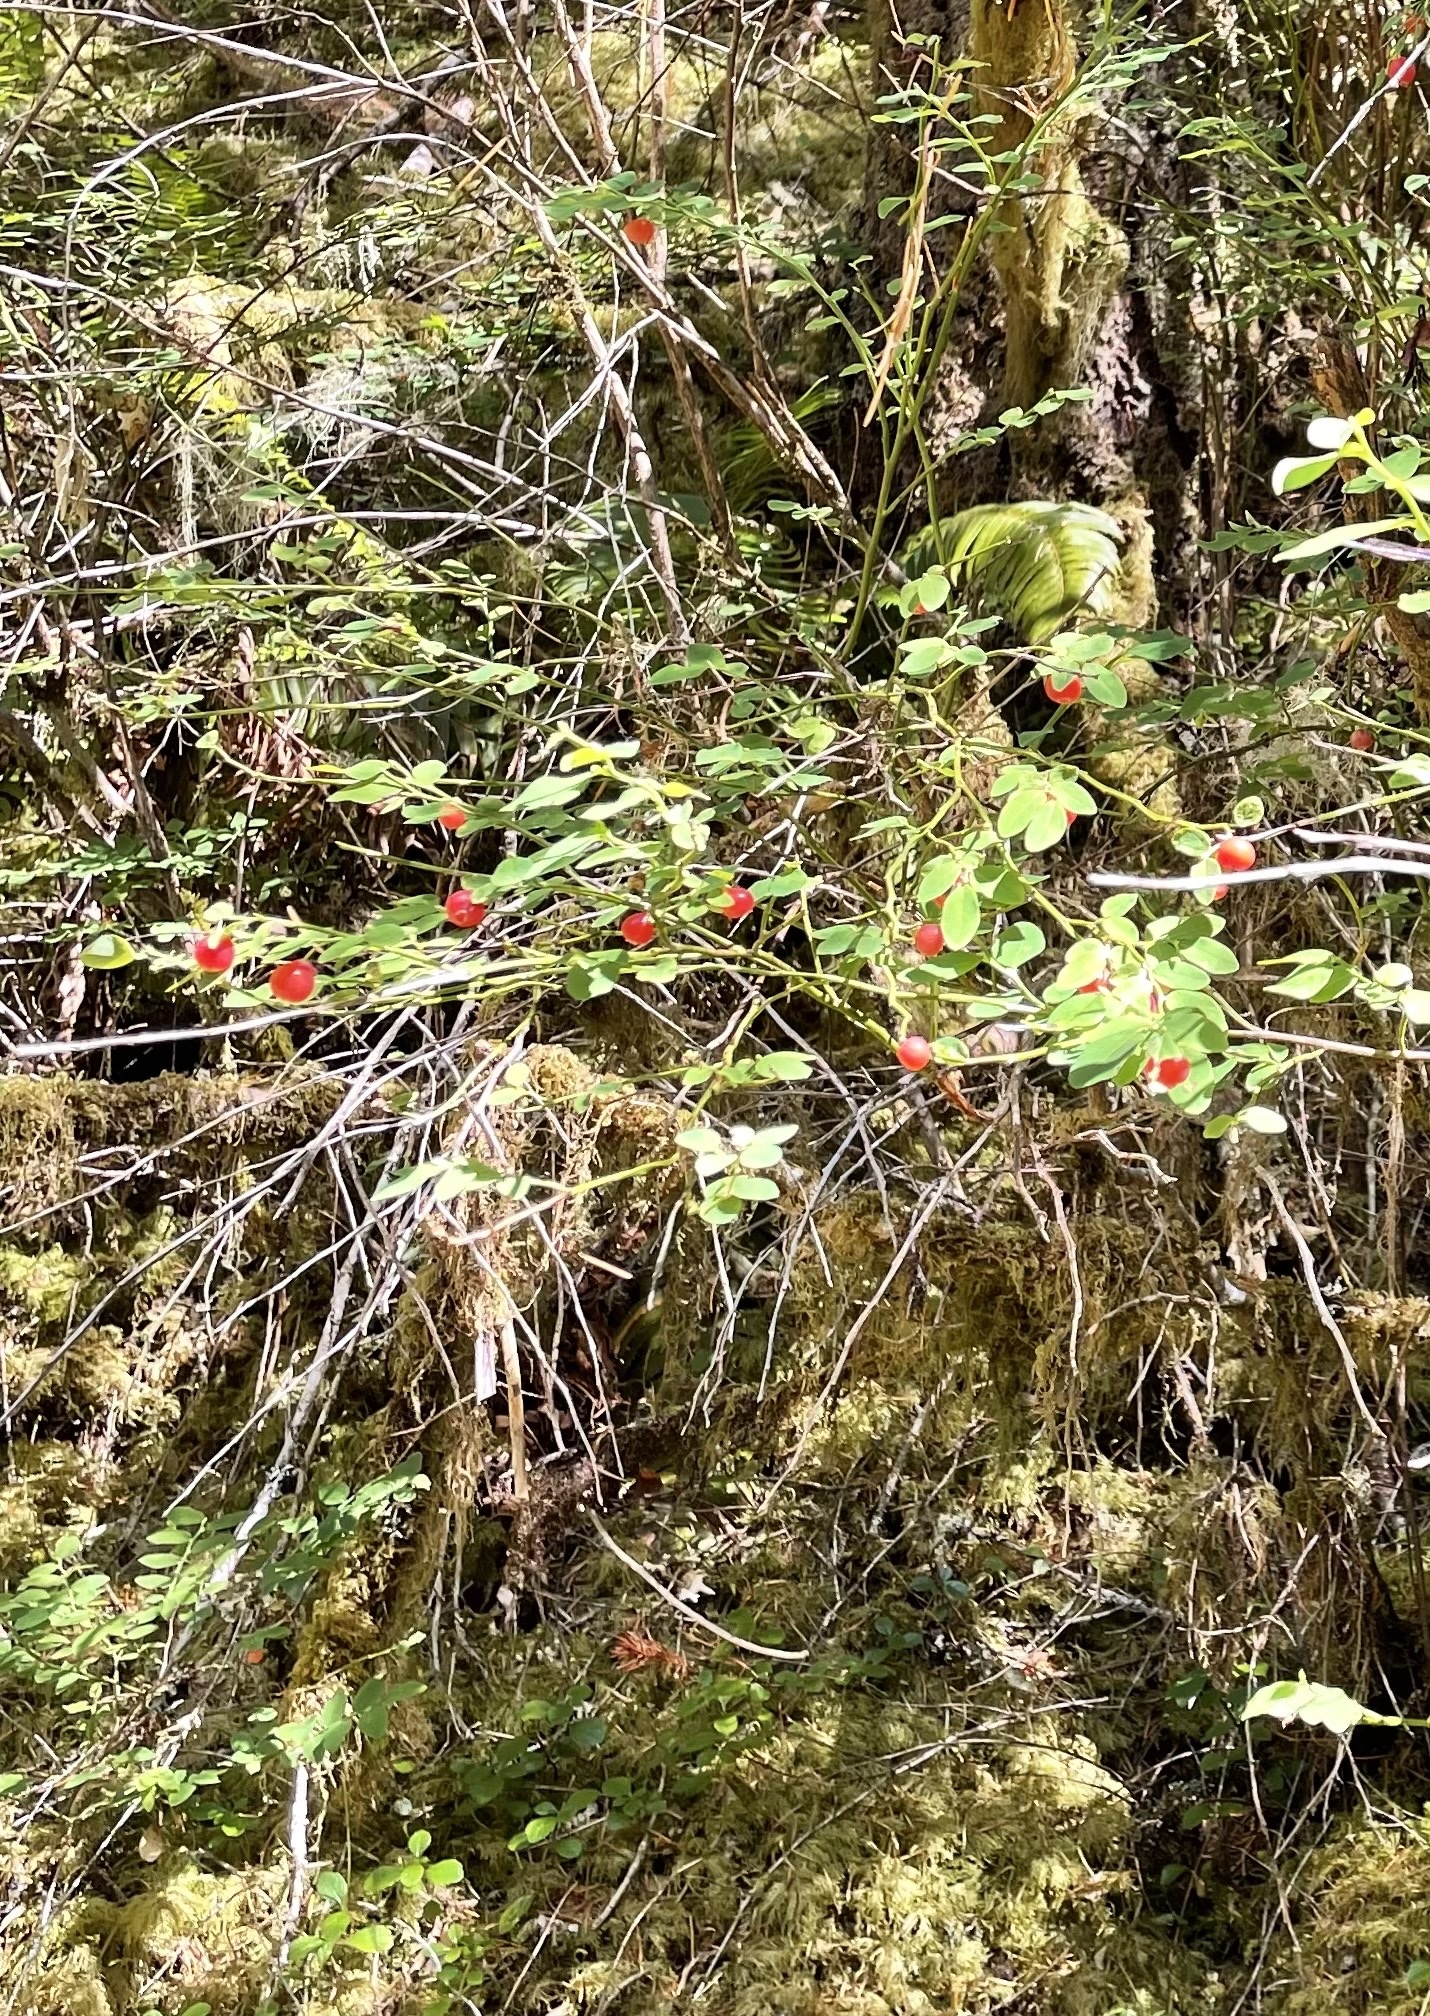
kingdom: Plantae
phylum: Tracheophyta
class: Magnoliopsida
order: Ericales
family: Ericaceae
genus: Vaccinium
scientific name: Vaccinium parvifolium
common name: Red-huckleberry
